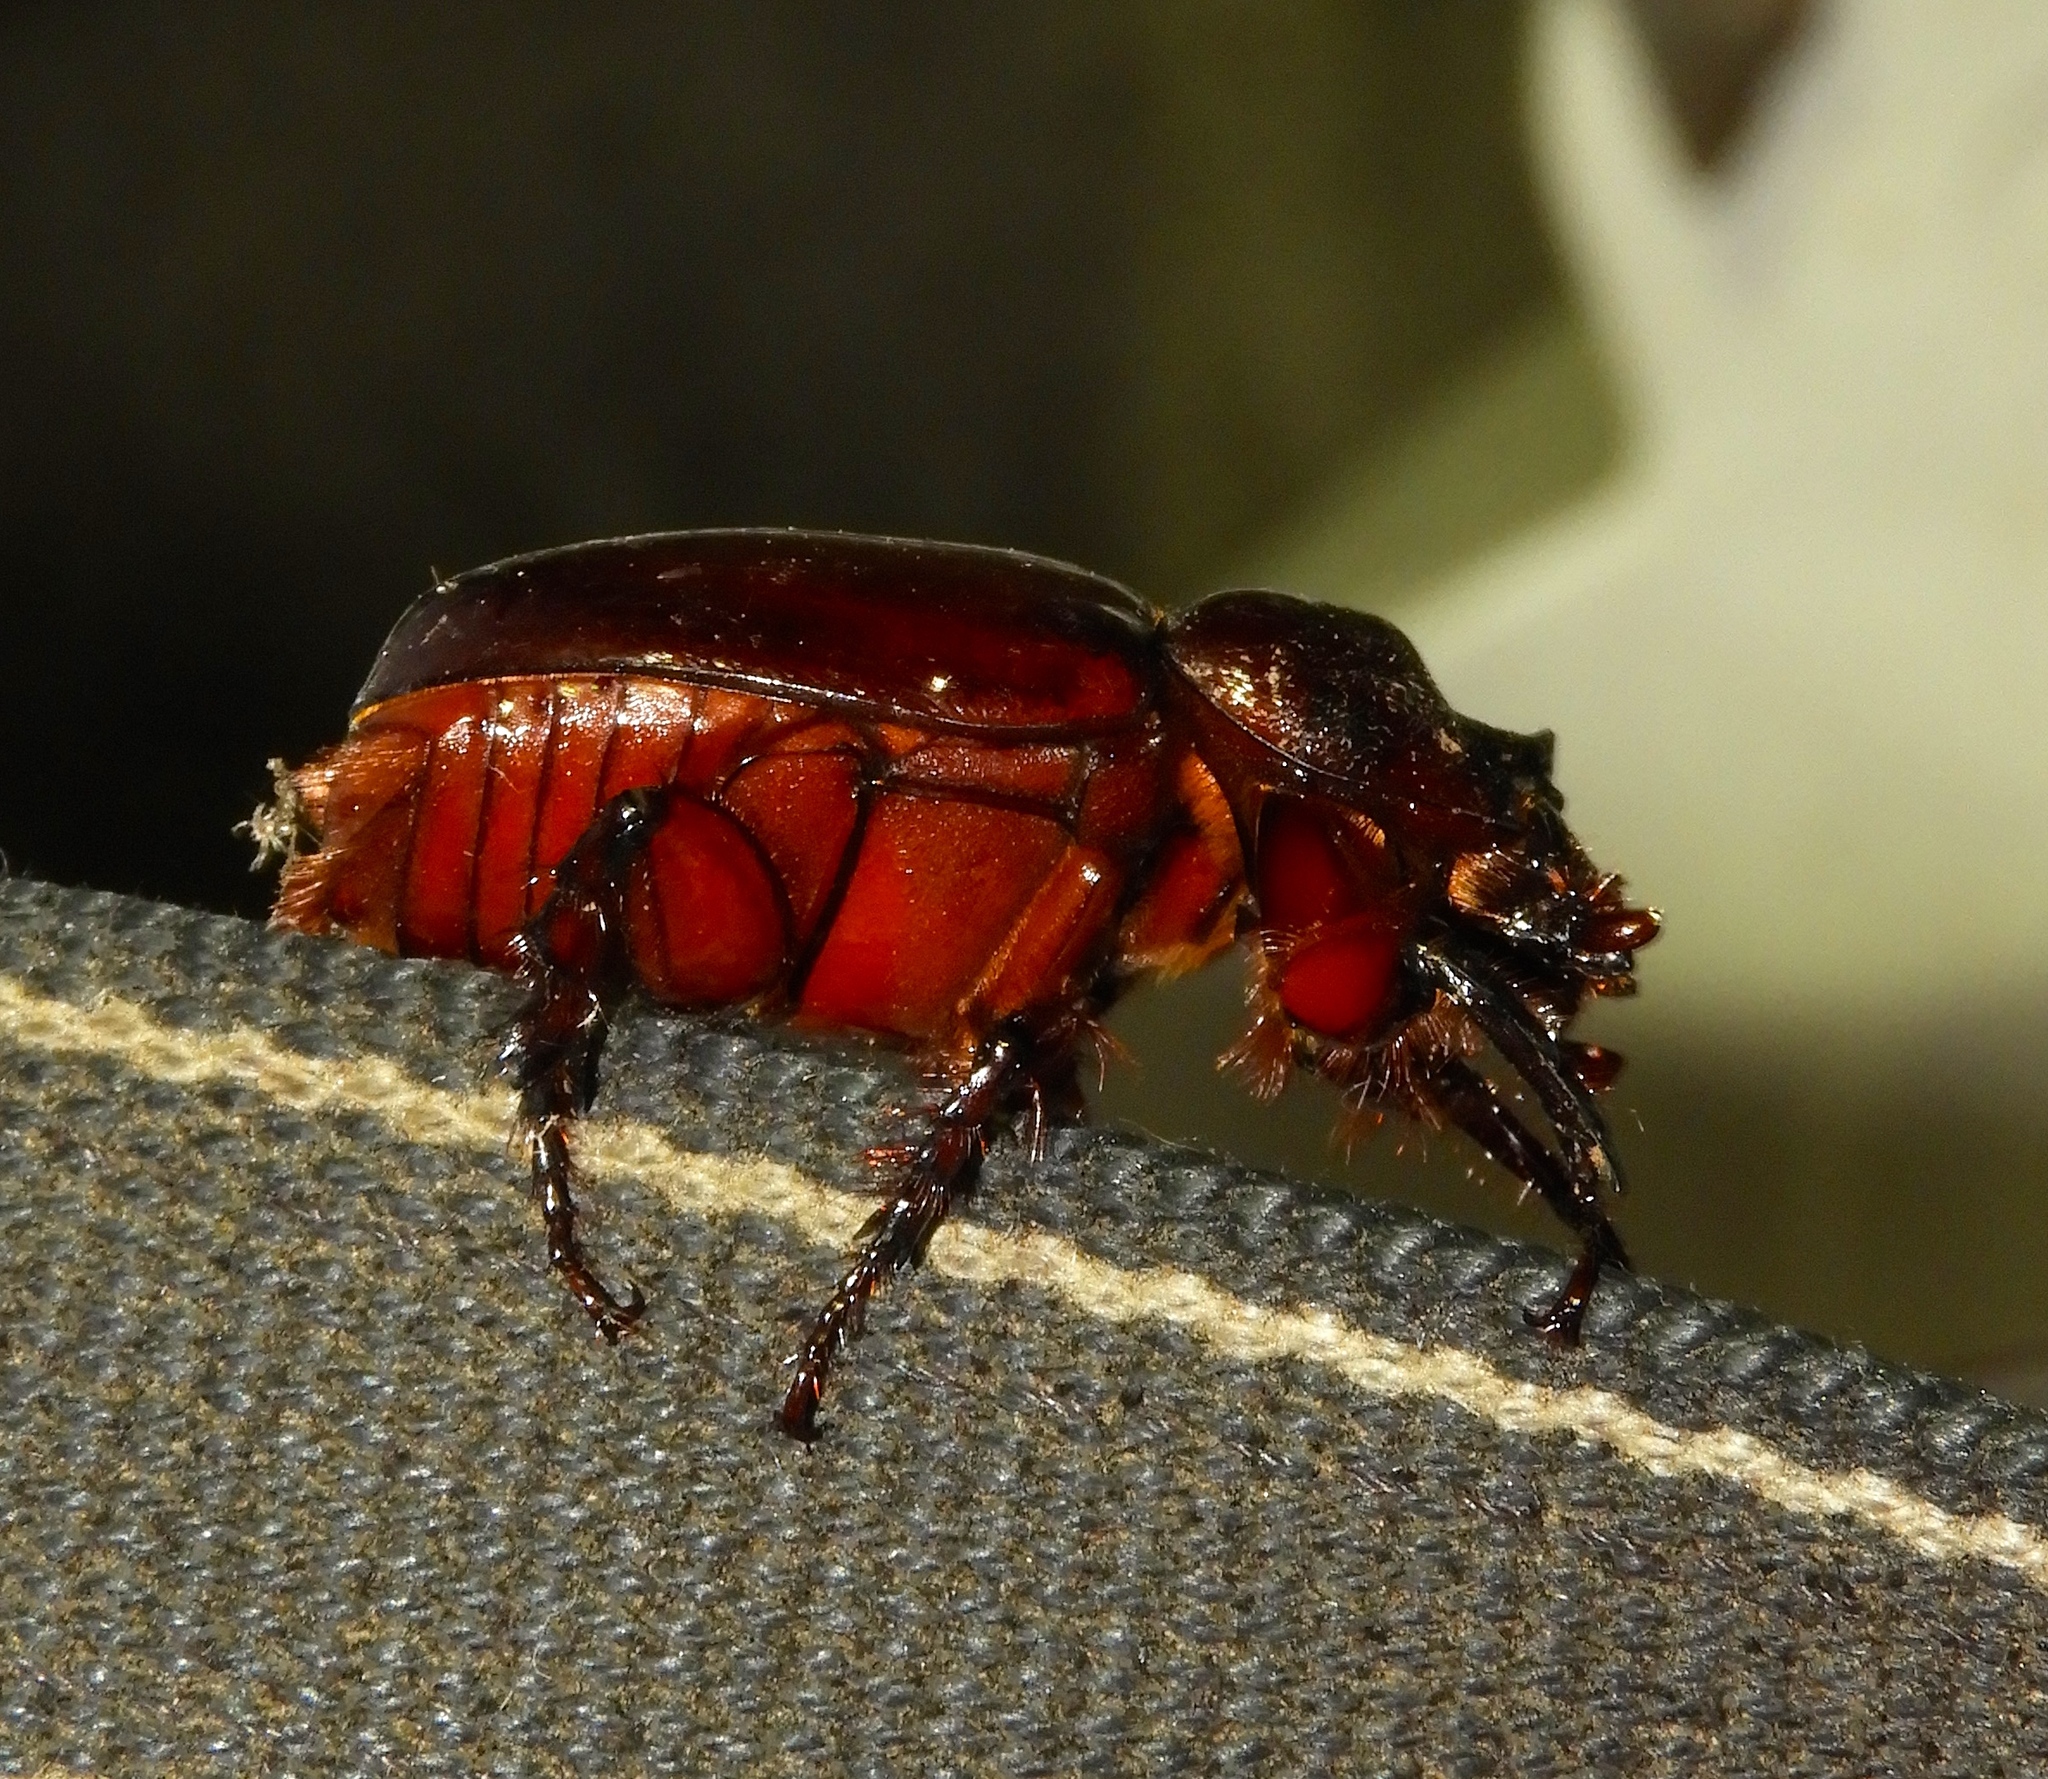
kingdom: Animalia
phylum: Arthropoda
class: Insecta
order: Coleoptera
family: Scarabaeidae
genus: Strategus
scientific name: Strategus
